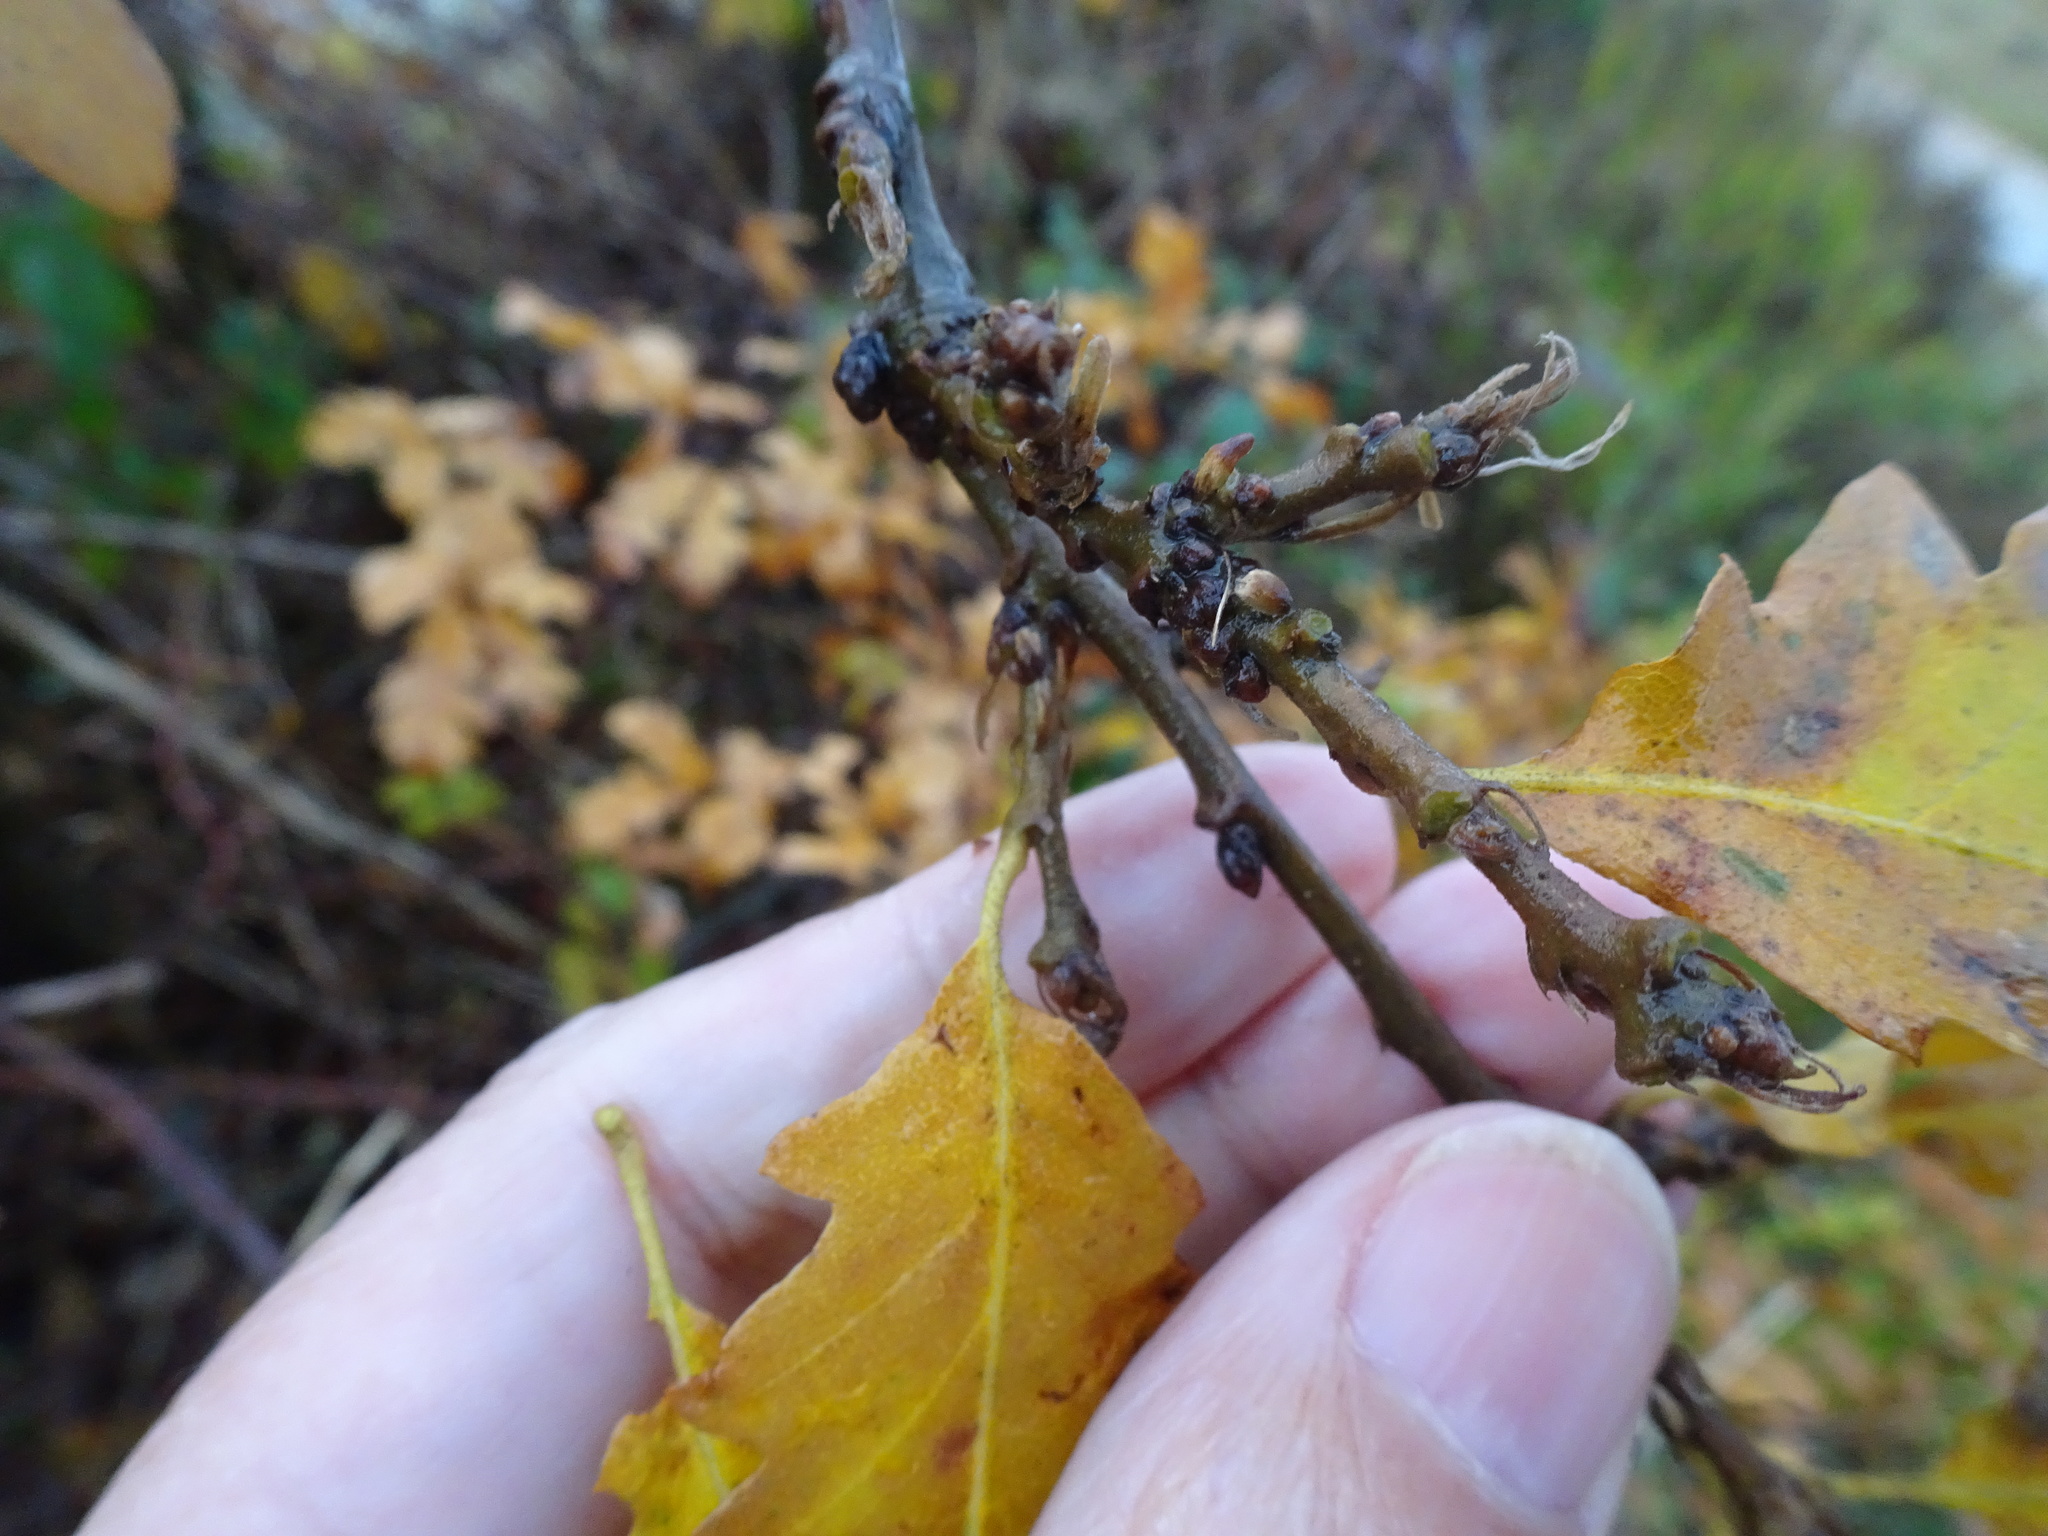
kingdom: Plantae
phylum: Tracheophyta
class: Magnoliopsida
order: Fagales
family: Fagaceae
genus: Quercus
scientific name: Quercus petraea
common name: Sessile oak
